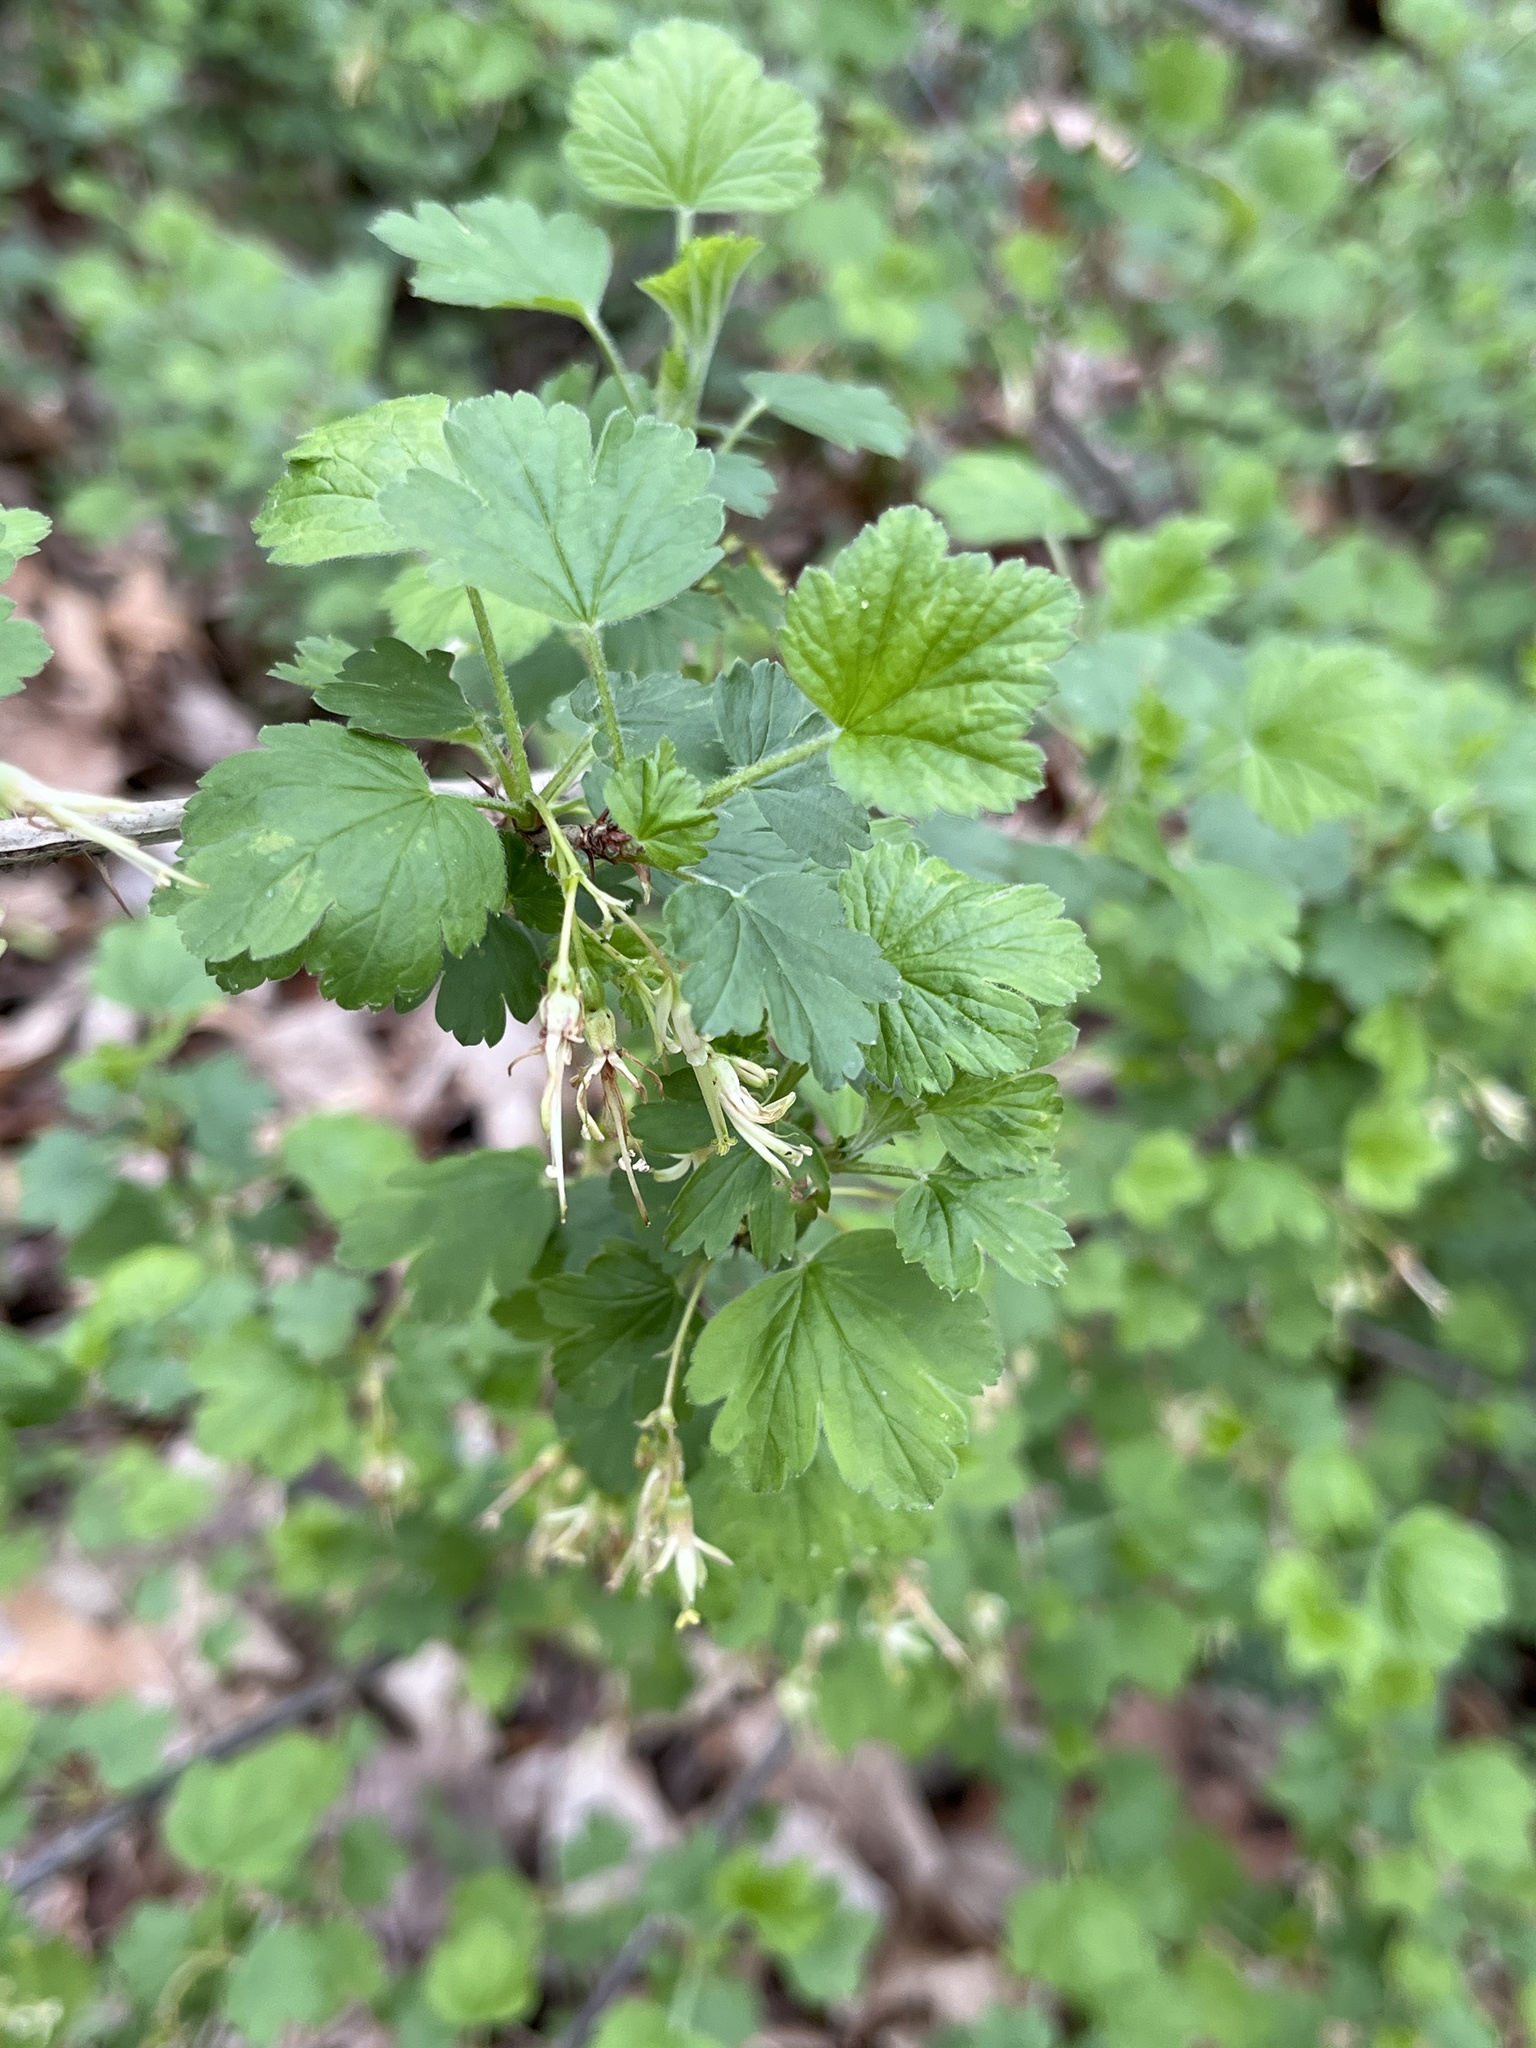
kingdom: Plantae
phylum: Tracheophyta
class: Magnoliopsida
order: Saxifragales
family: Grossulariaceae
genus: Ribes
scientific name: Ribes missouriense
